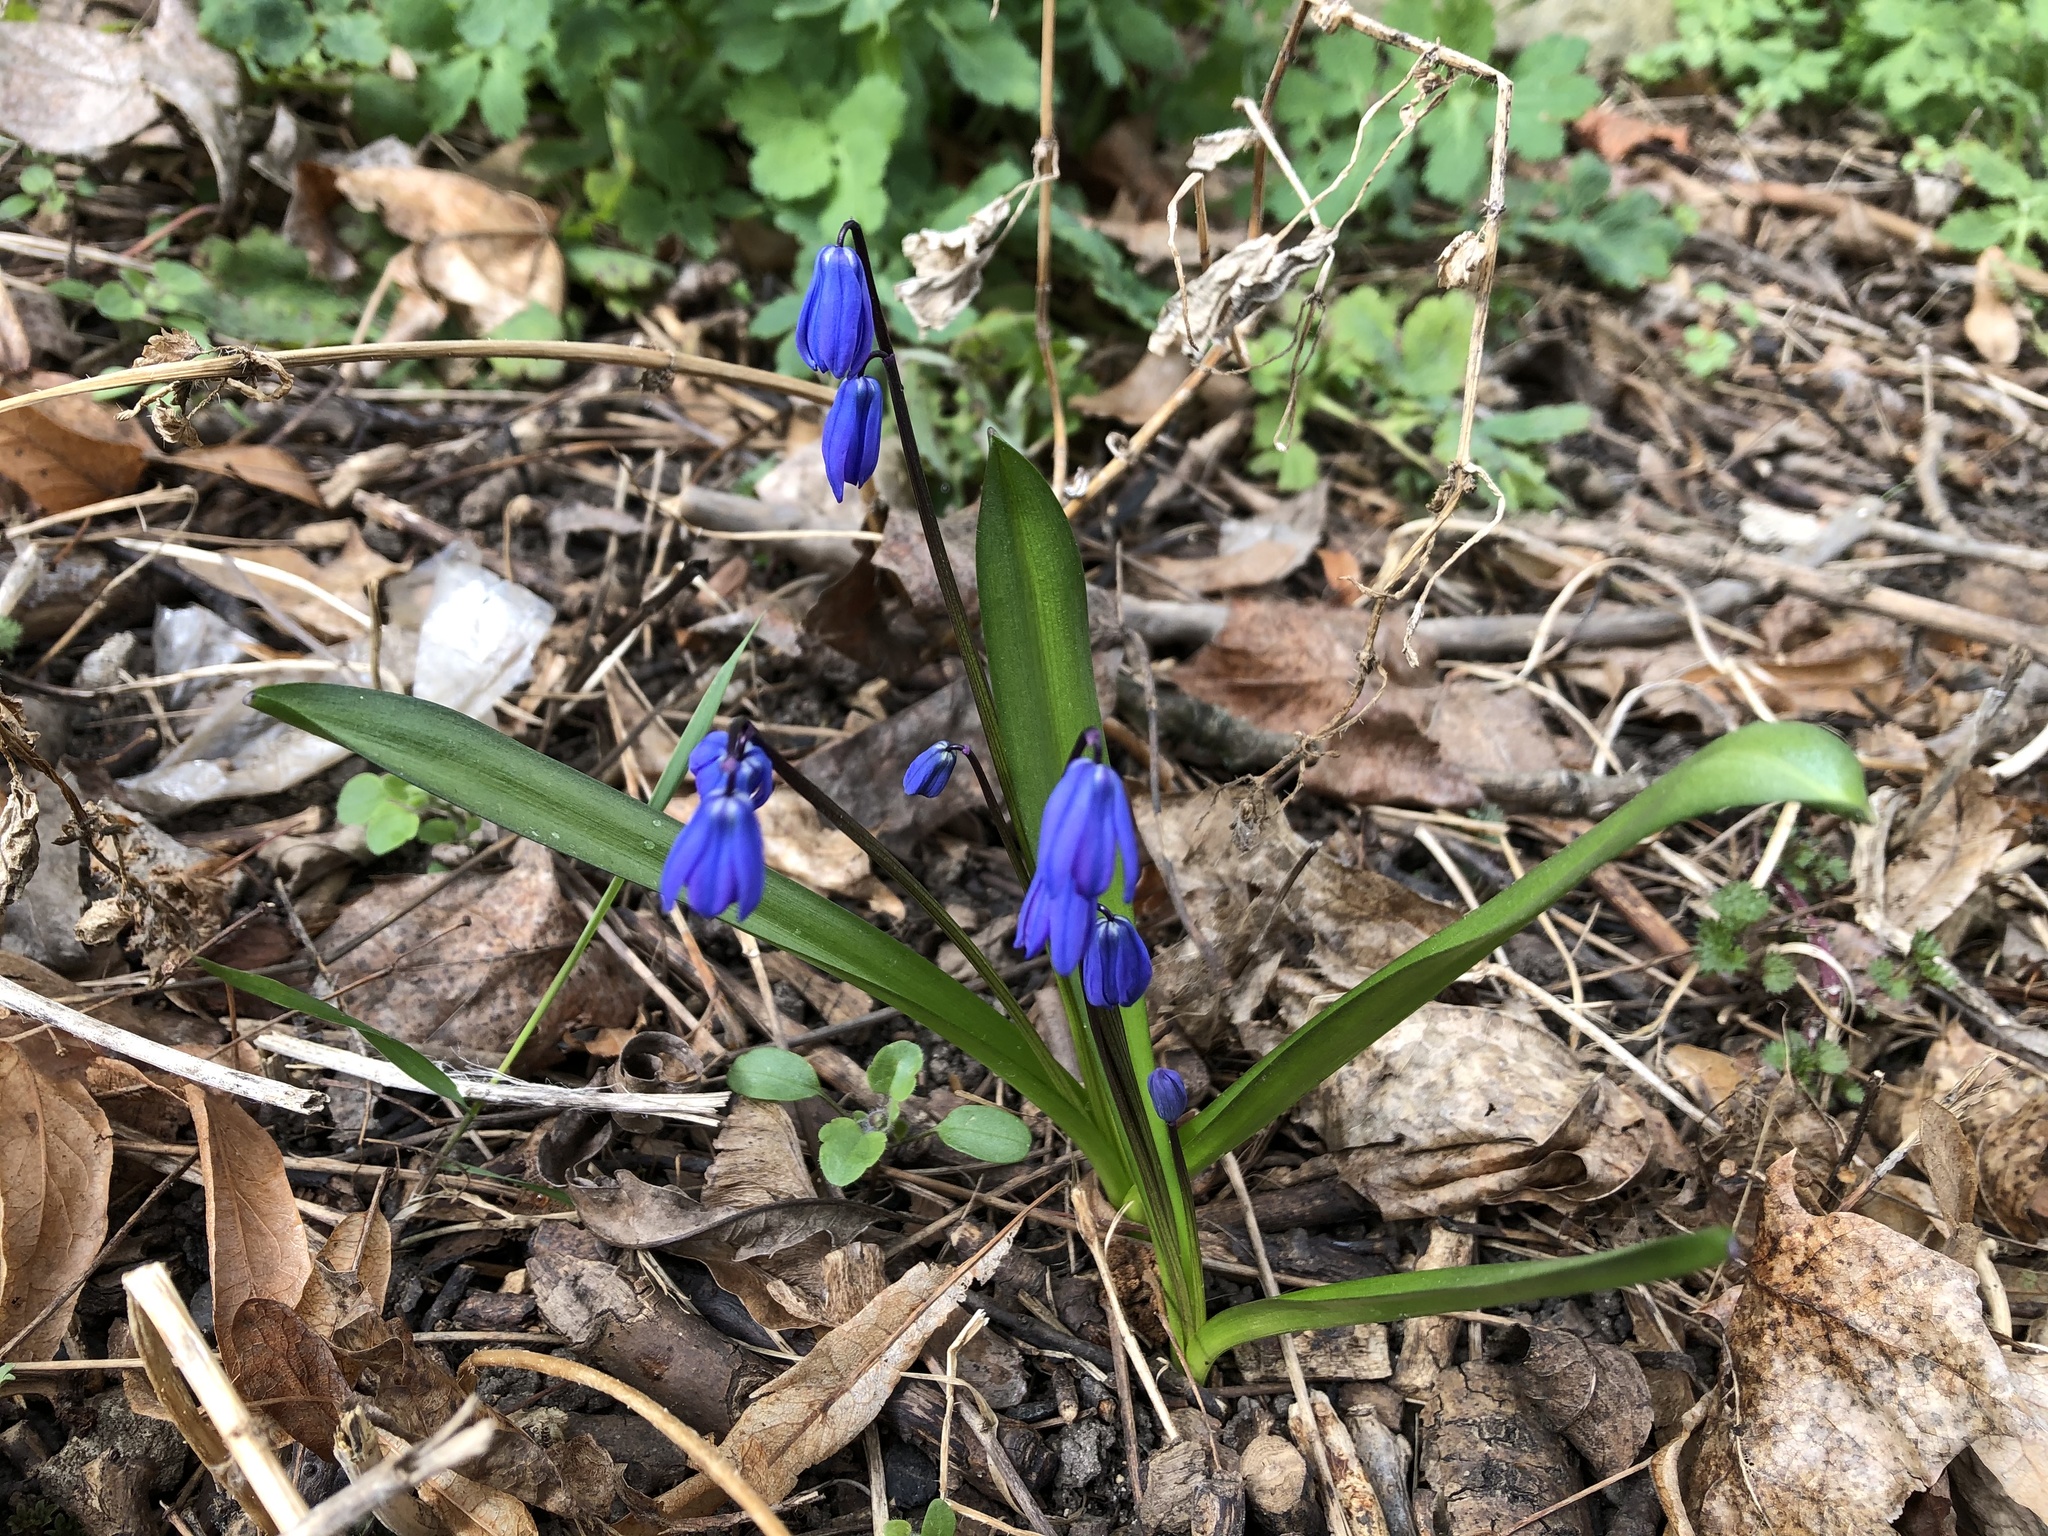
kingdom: Plantae
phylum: Tracheophyta
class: Liliopsida
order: Asparagales
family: Asparagaceae
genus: Scilla
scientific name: Scilla siberica
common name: Siberian squill
